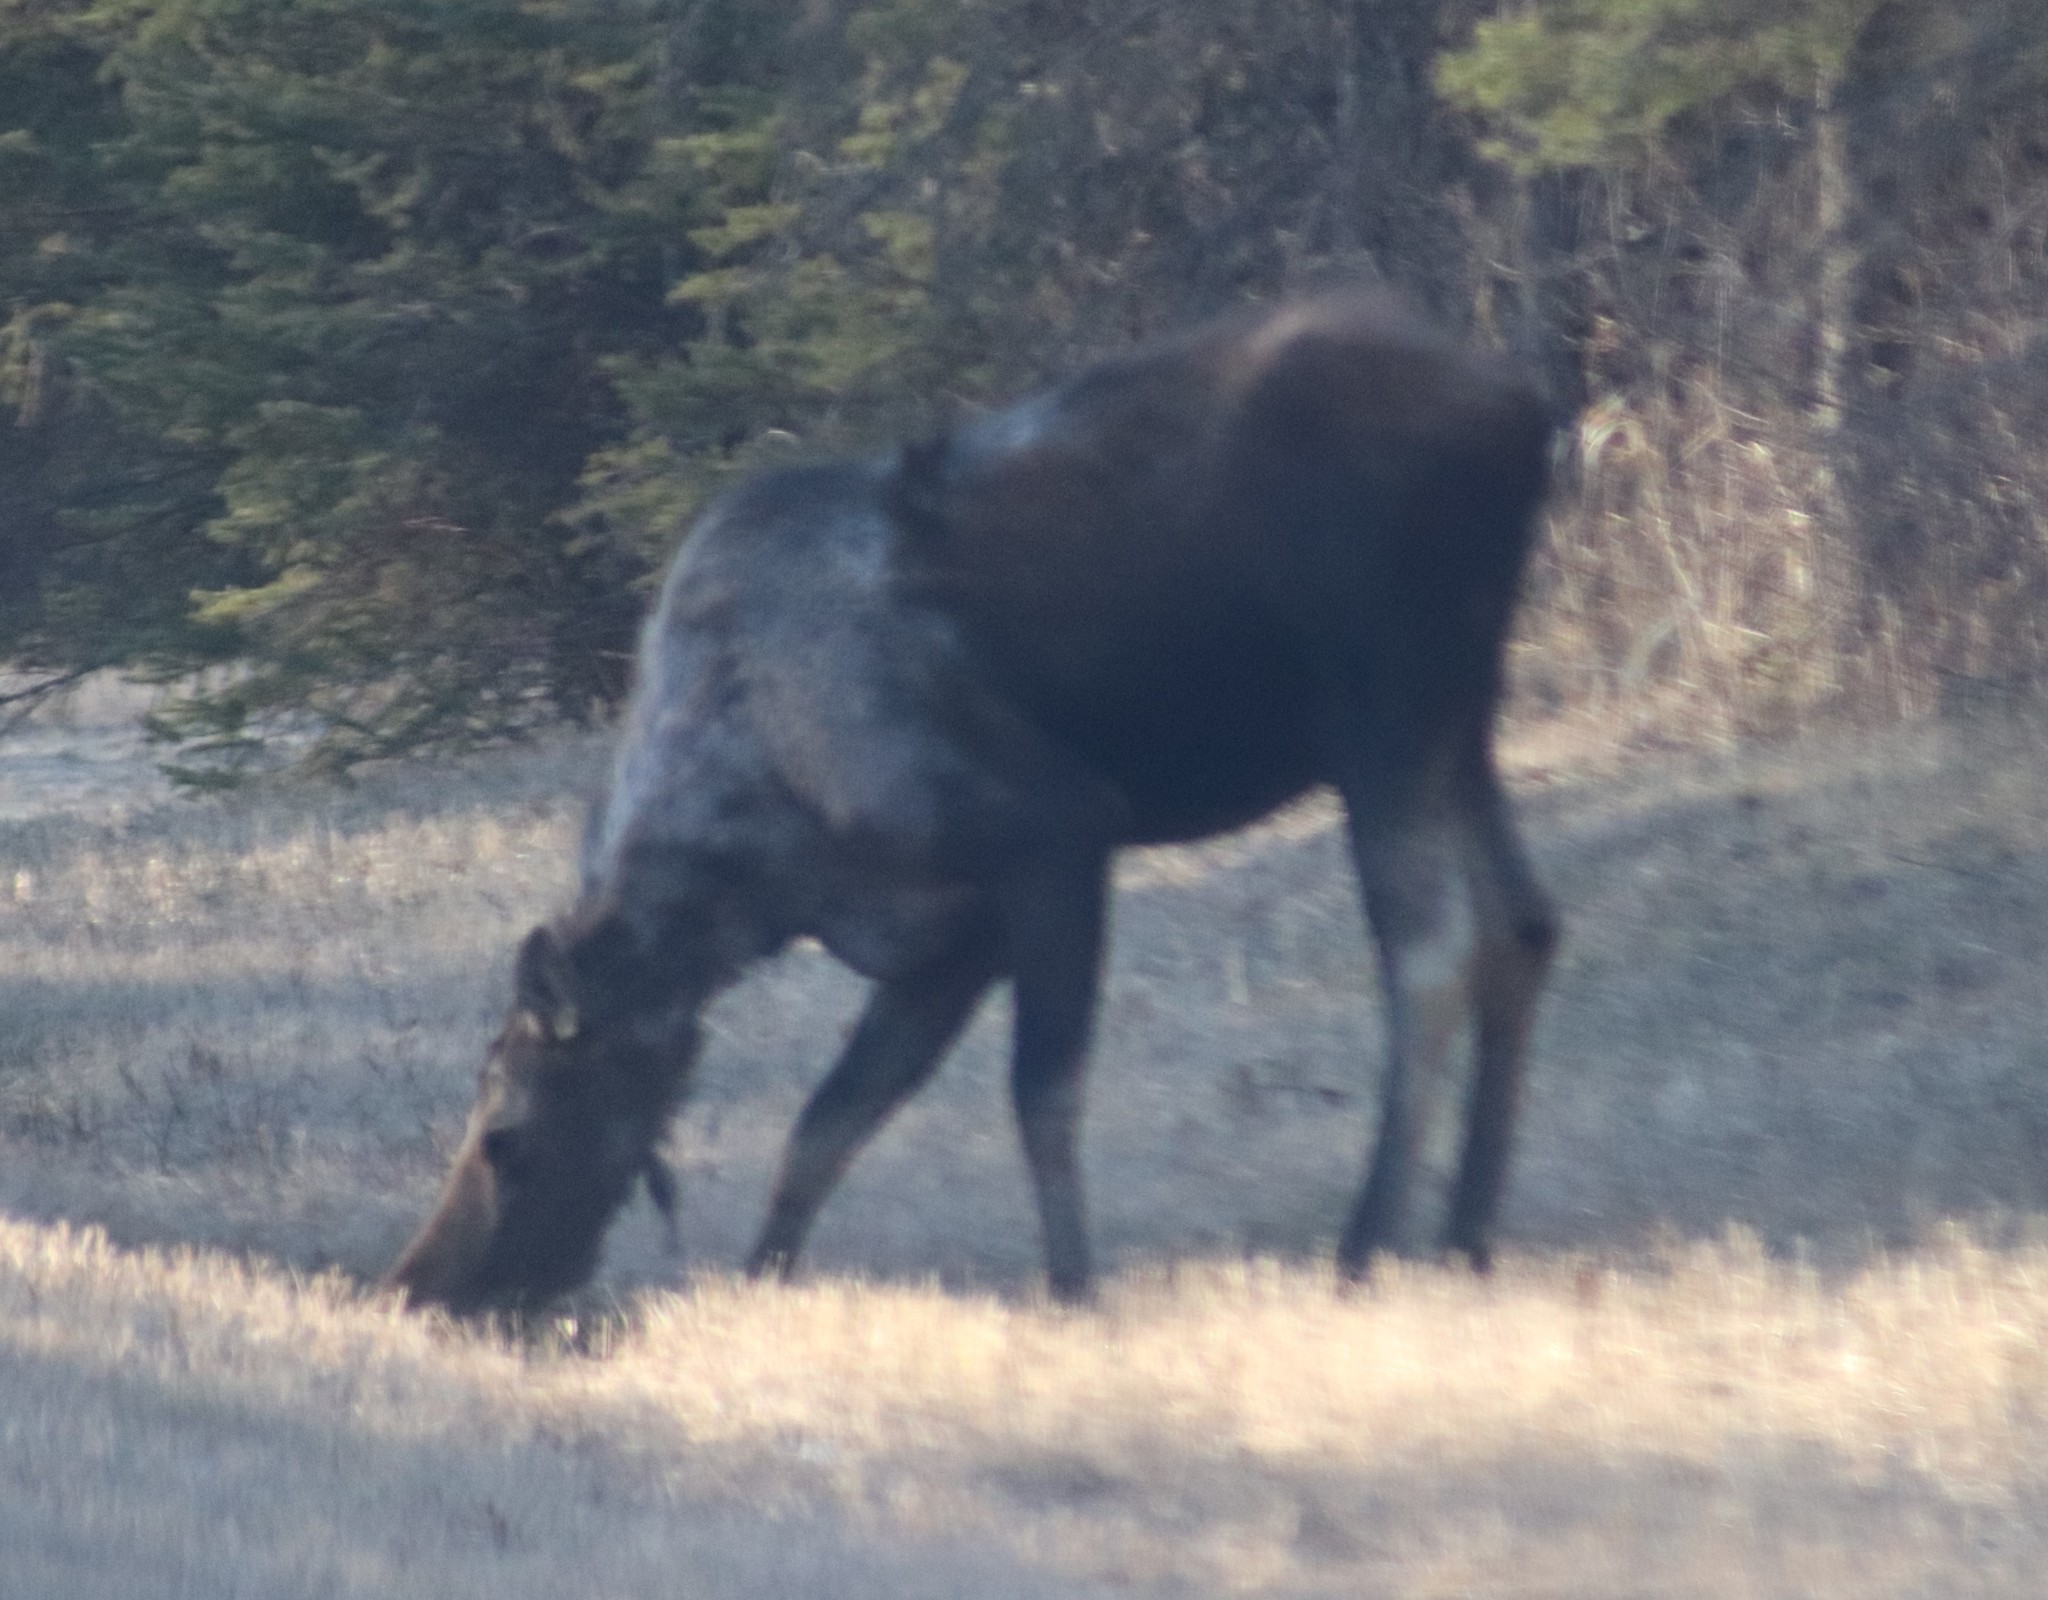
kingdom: Animalia
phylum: Chordata
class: Mammalia
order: Artiodactyla
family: Cervidae
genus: Alces
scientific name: Alces alces
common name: Moose
